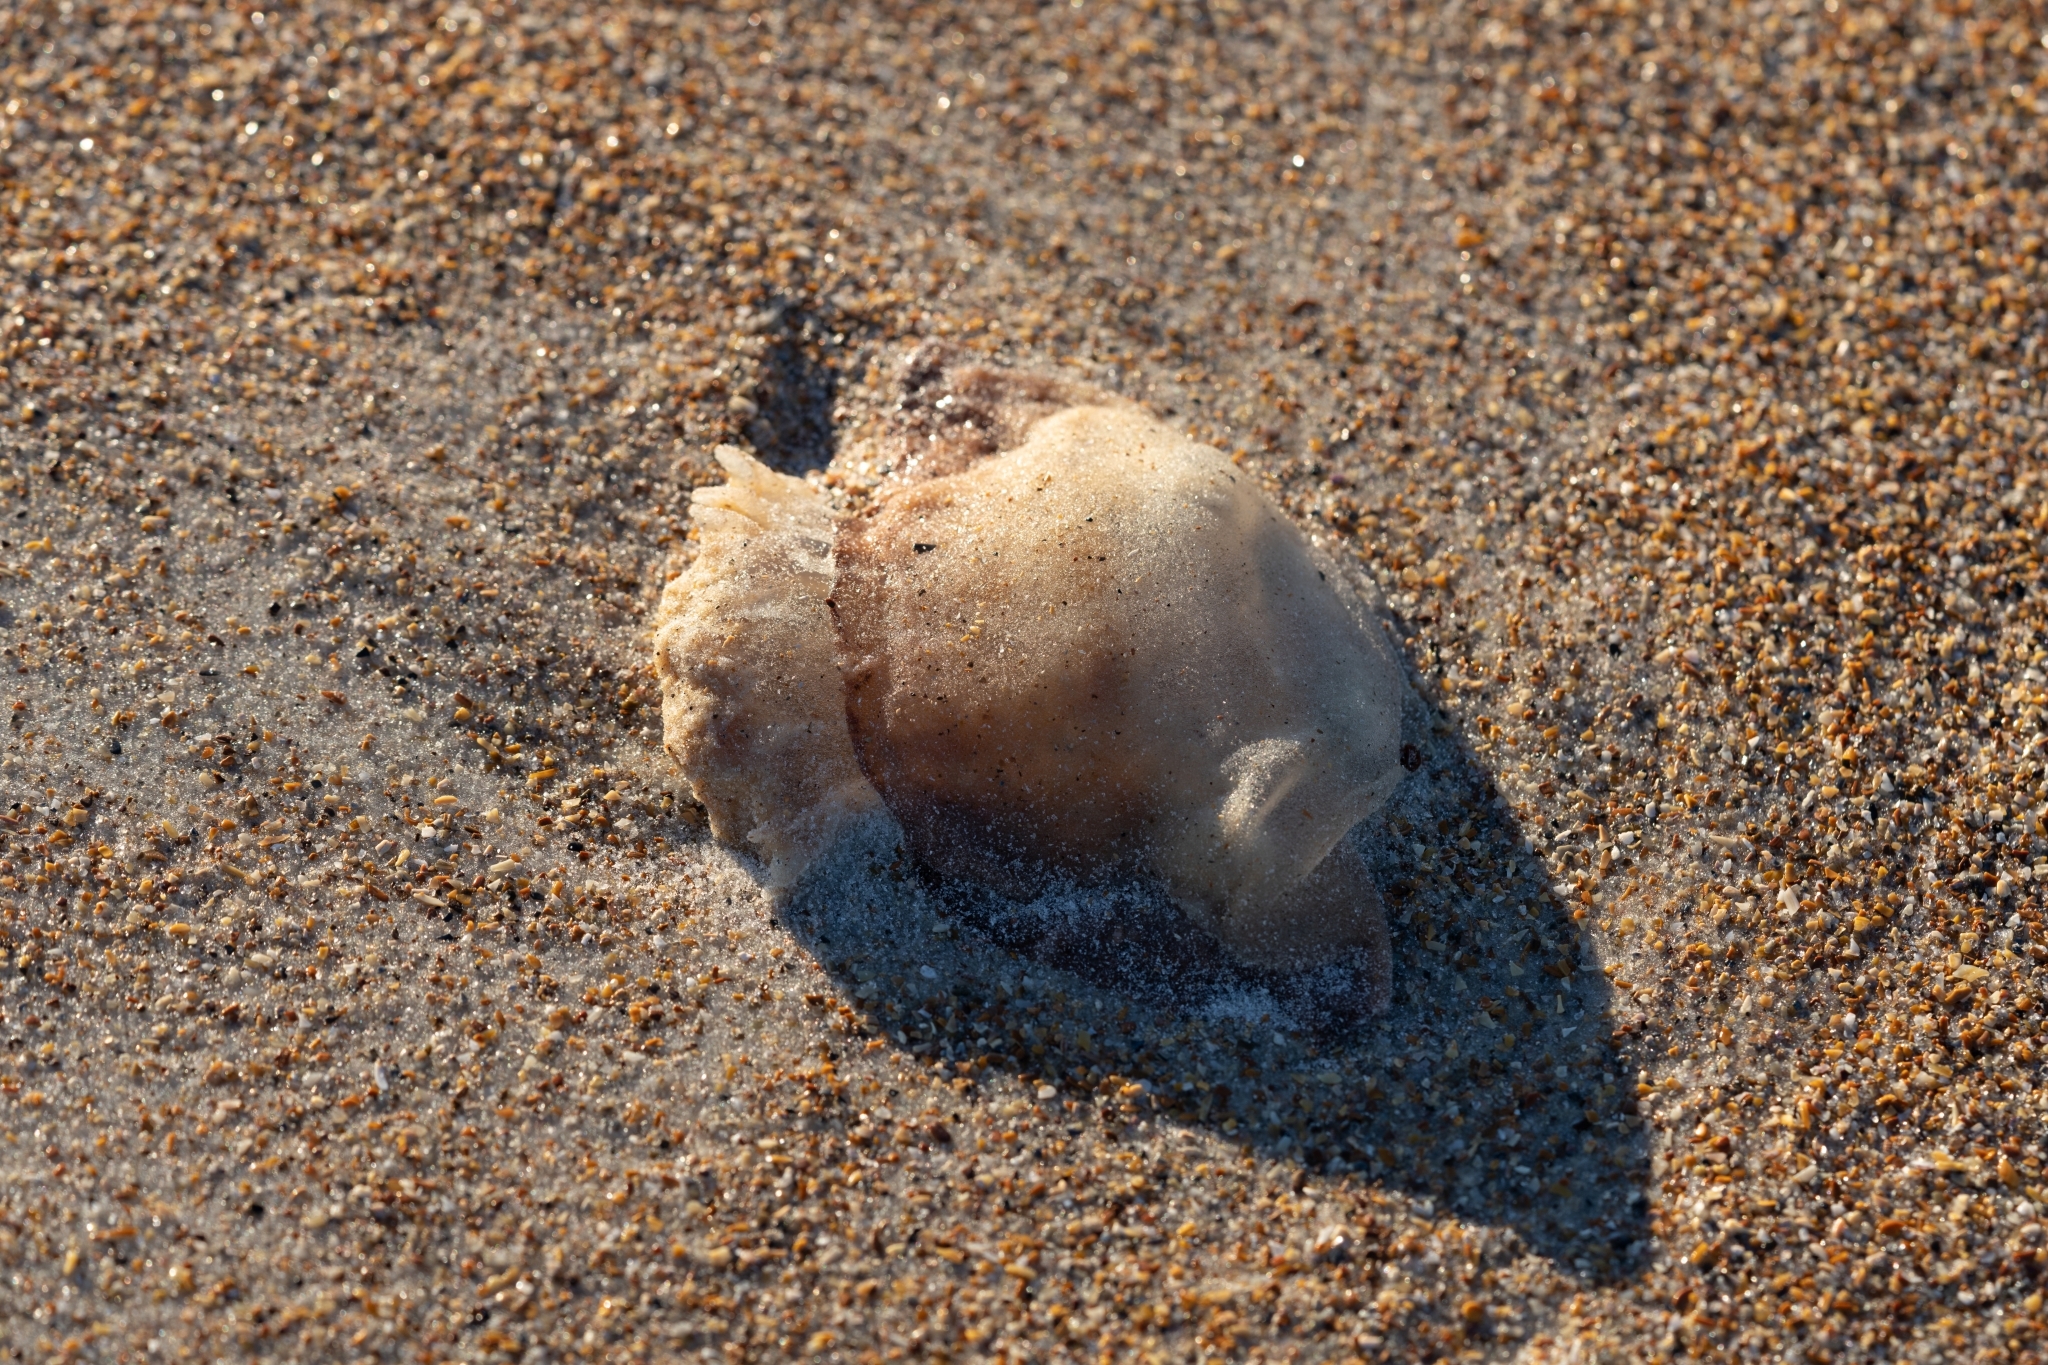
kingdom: Animalia
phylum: Cnidaria
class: Scyphozoa
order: Rhizostomeae
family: Stomolophidae
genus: Stomolophus
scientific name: Stomolophus meleagris
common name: Cabbagehead
